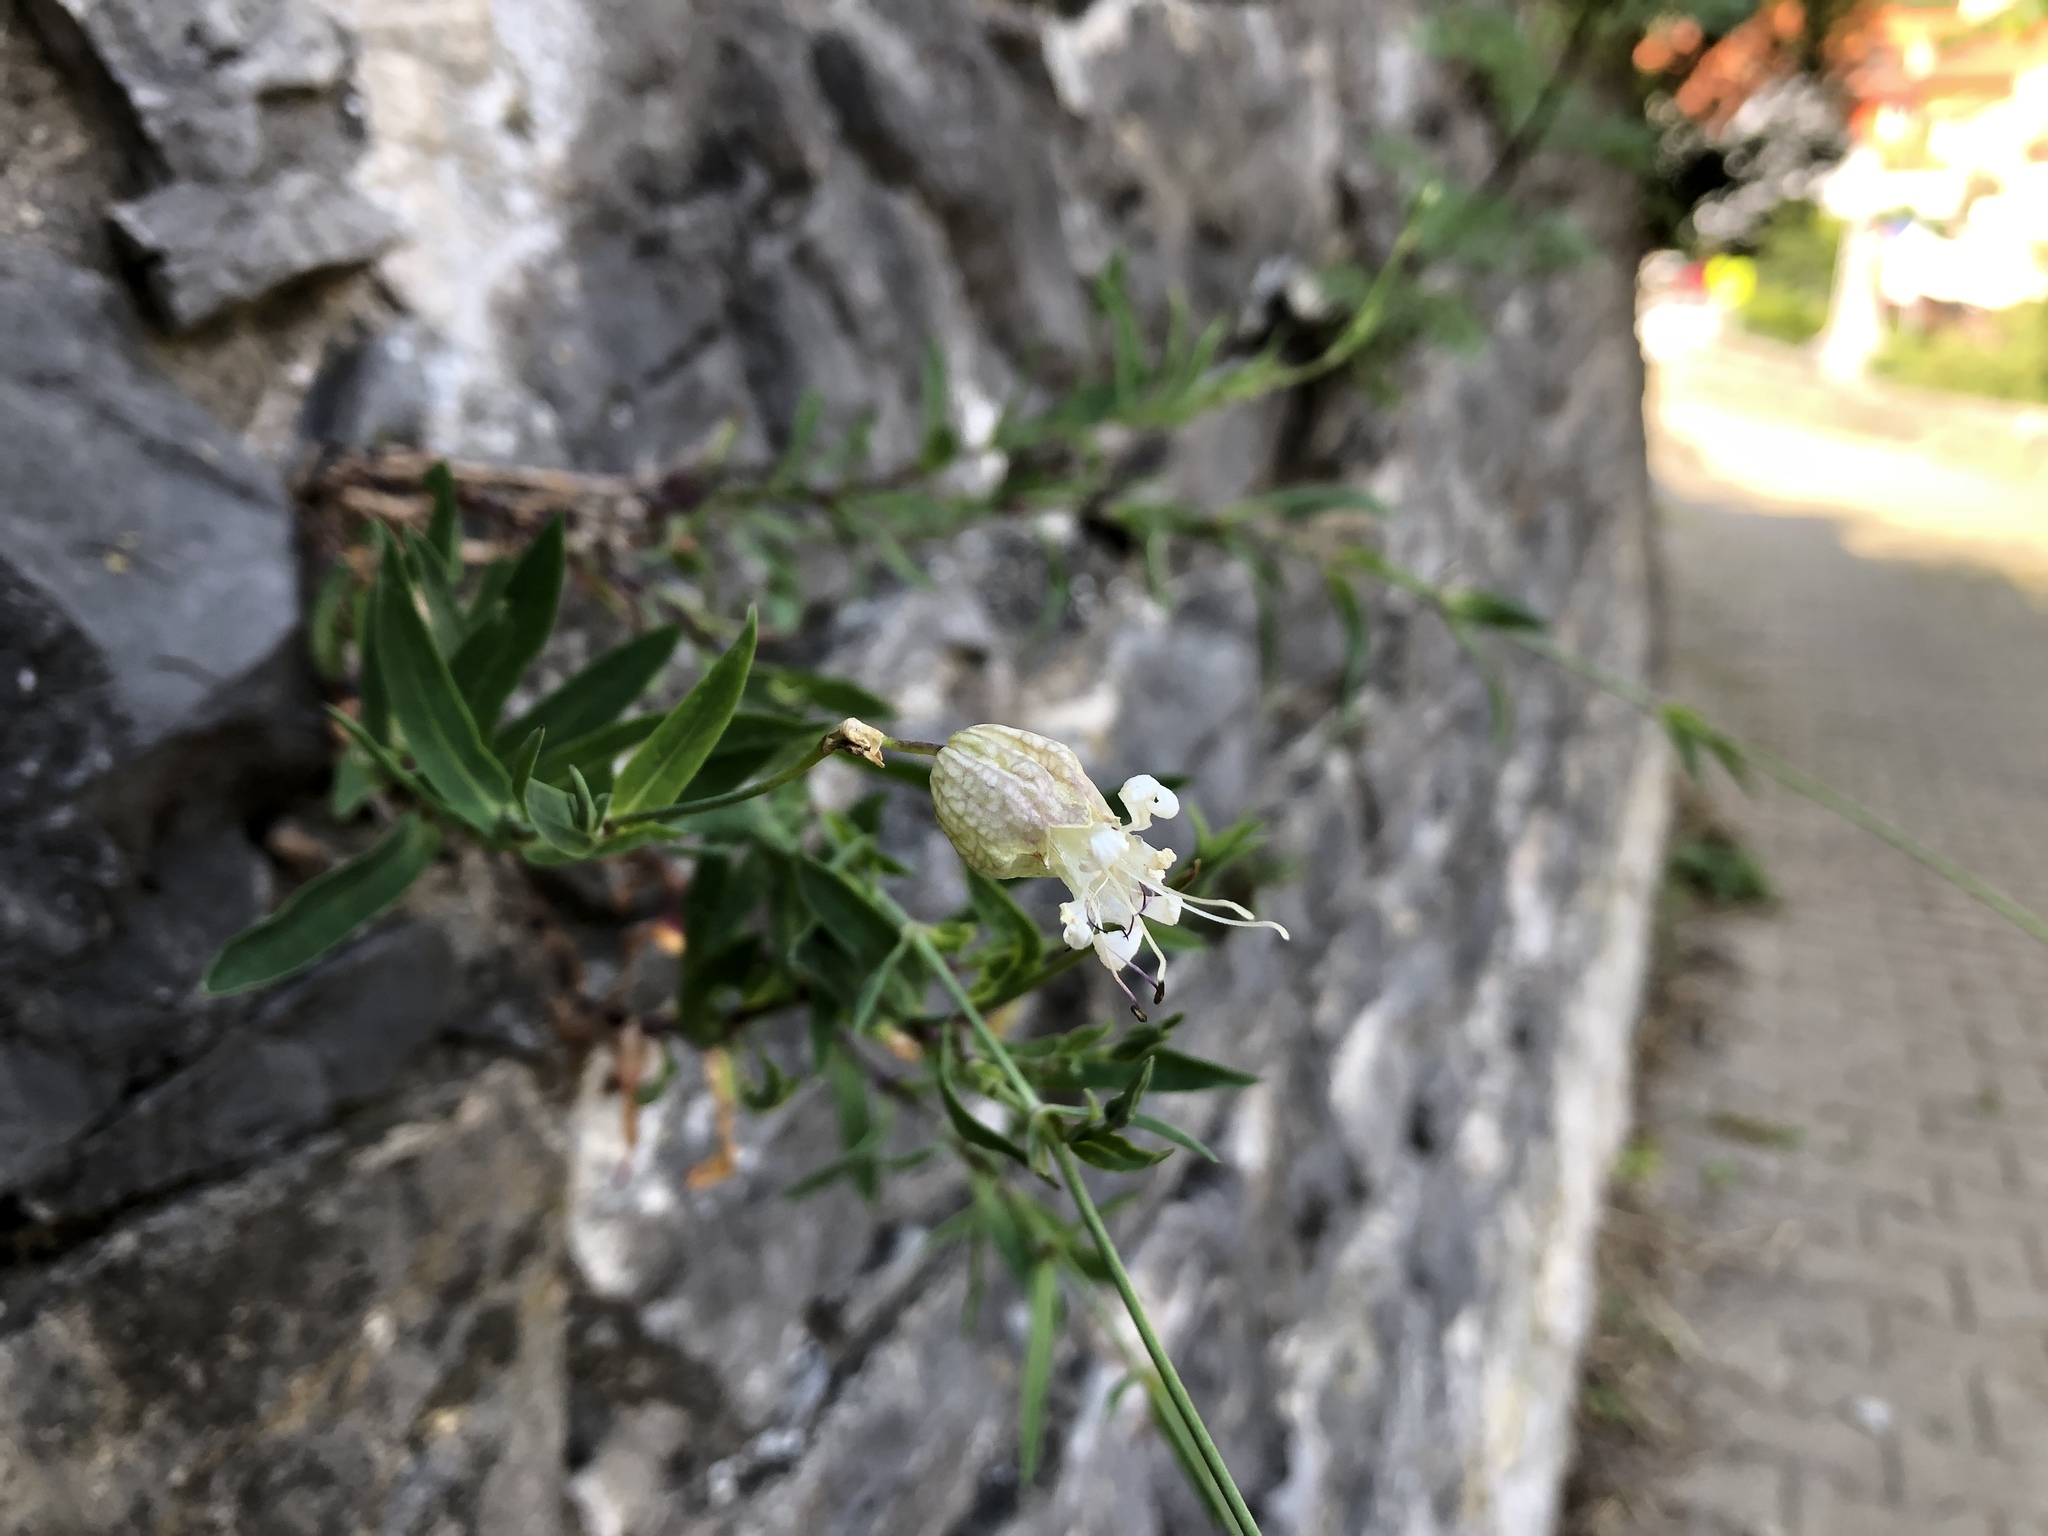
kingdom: Plantae
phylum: Tracheophyta
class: Magnoliopsida
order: Caryophyllales
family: Caryophyllaceae
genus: Silene
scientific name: Silene vulgaris
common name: Bladder campion
